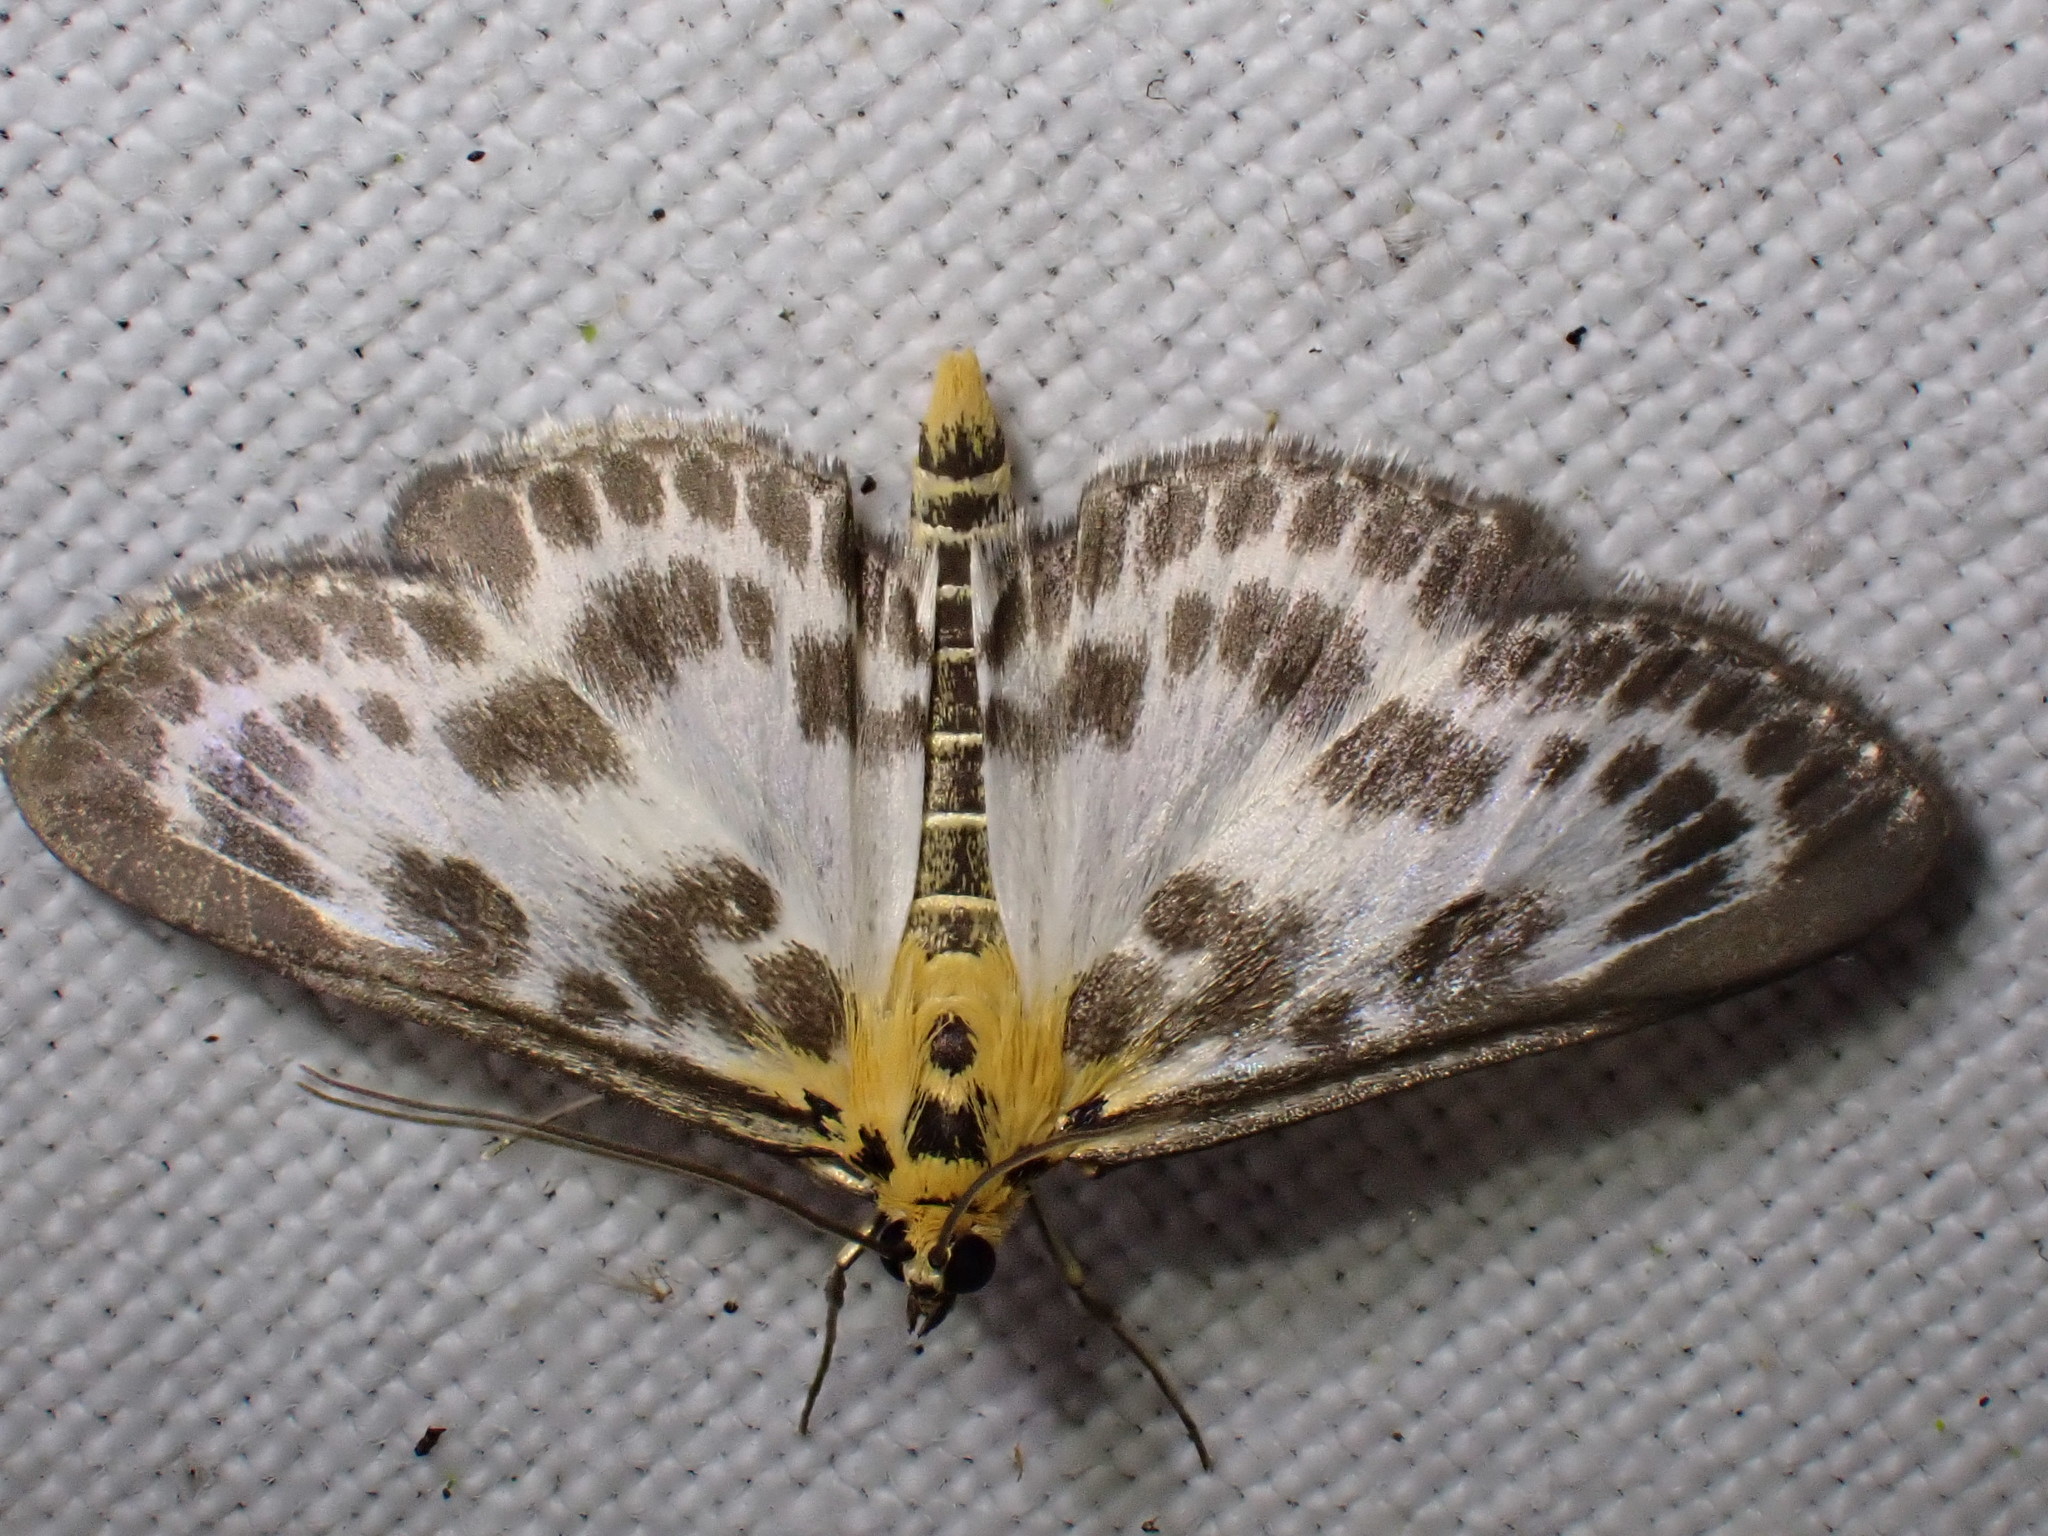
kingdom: Animalia
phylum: Arthropoda
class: Insecta
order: Lepidoptera
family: Crambidae
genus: Anania
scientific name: Anania hortulata
